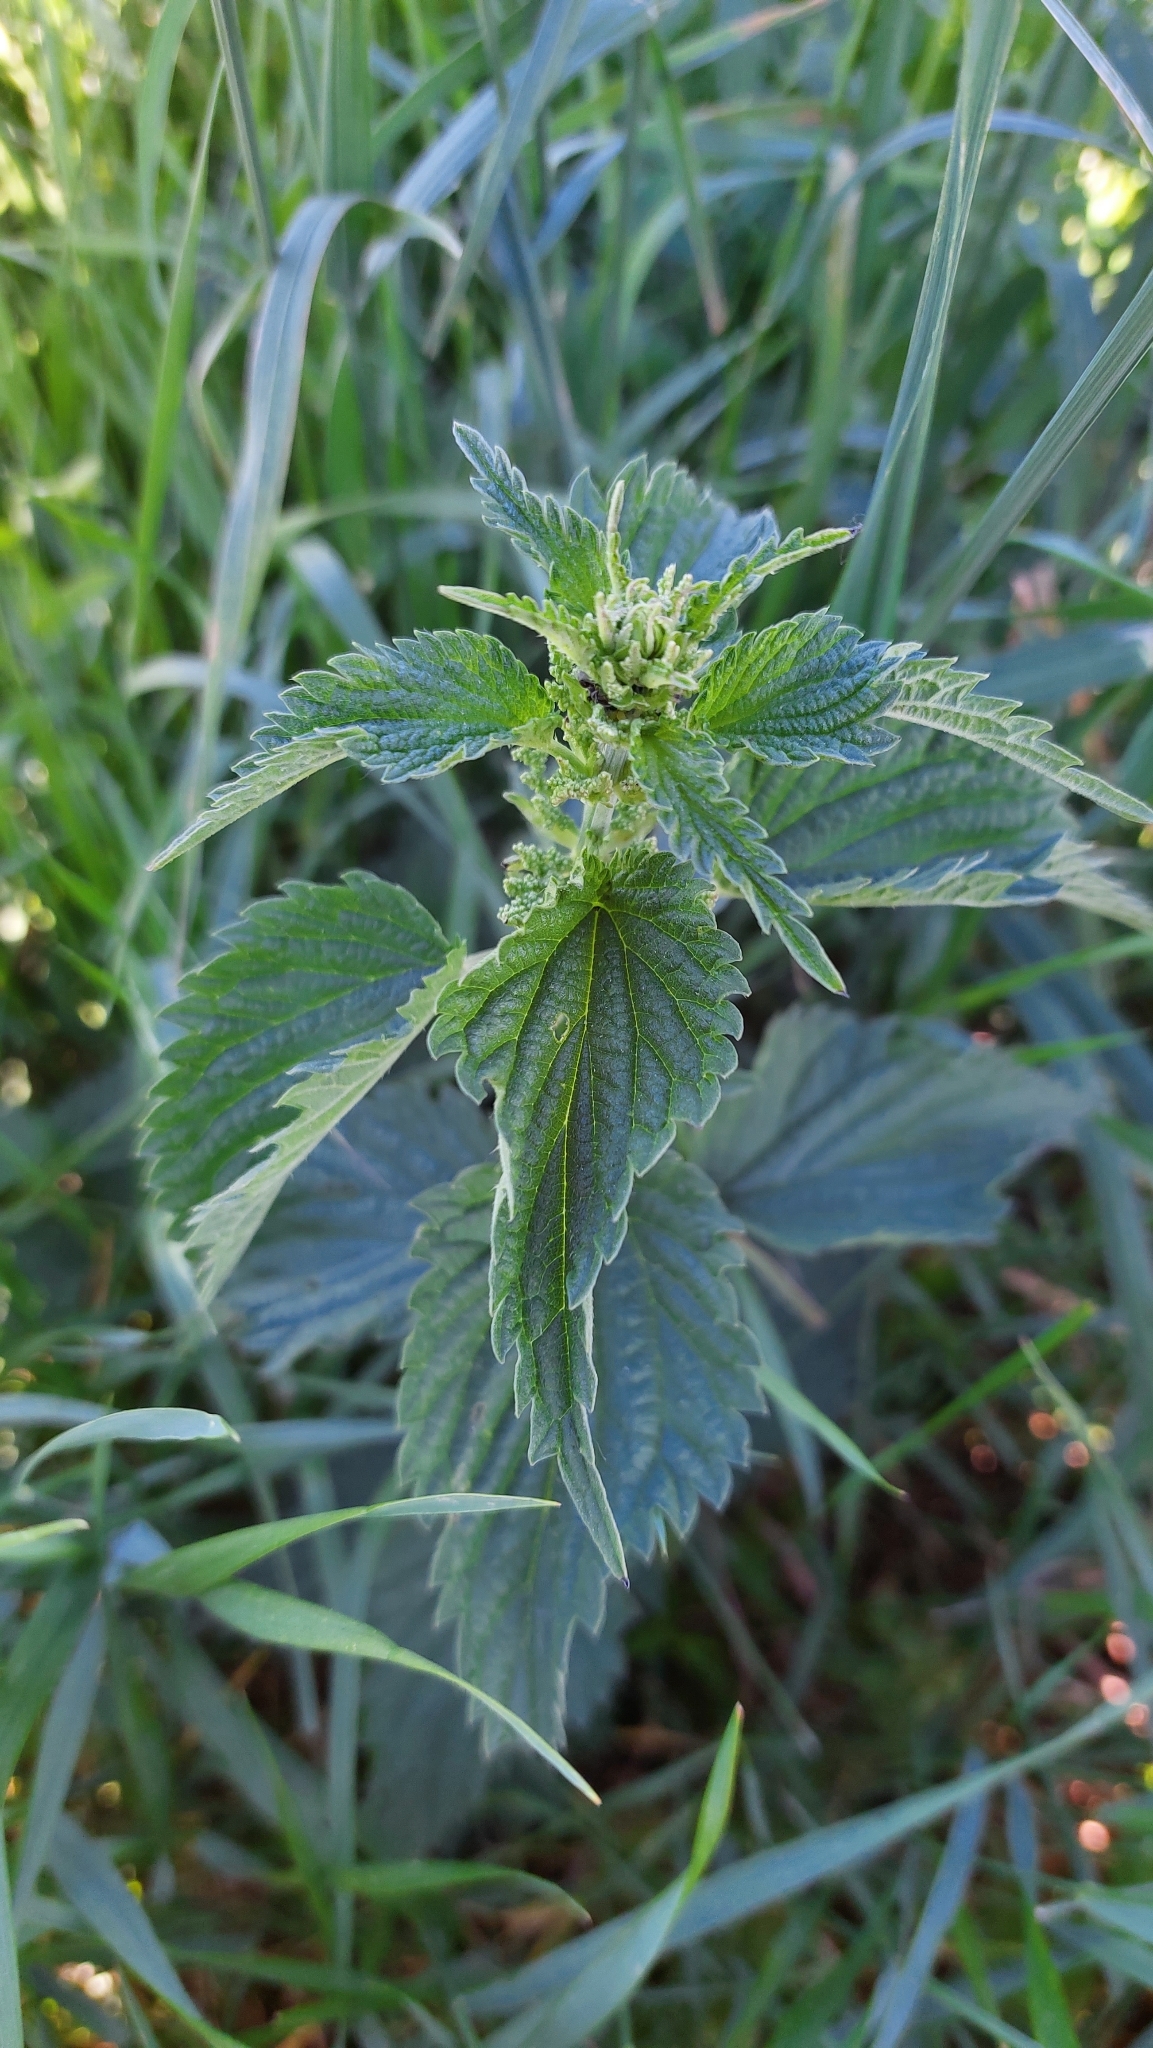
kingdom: Plantae
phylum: Tracheophyta
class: Magnoliopsida
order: Rosales
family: Urticaceae
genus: Urtica
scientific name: Urtica dioica
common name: Common nettle
